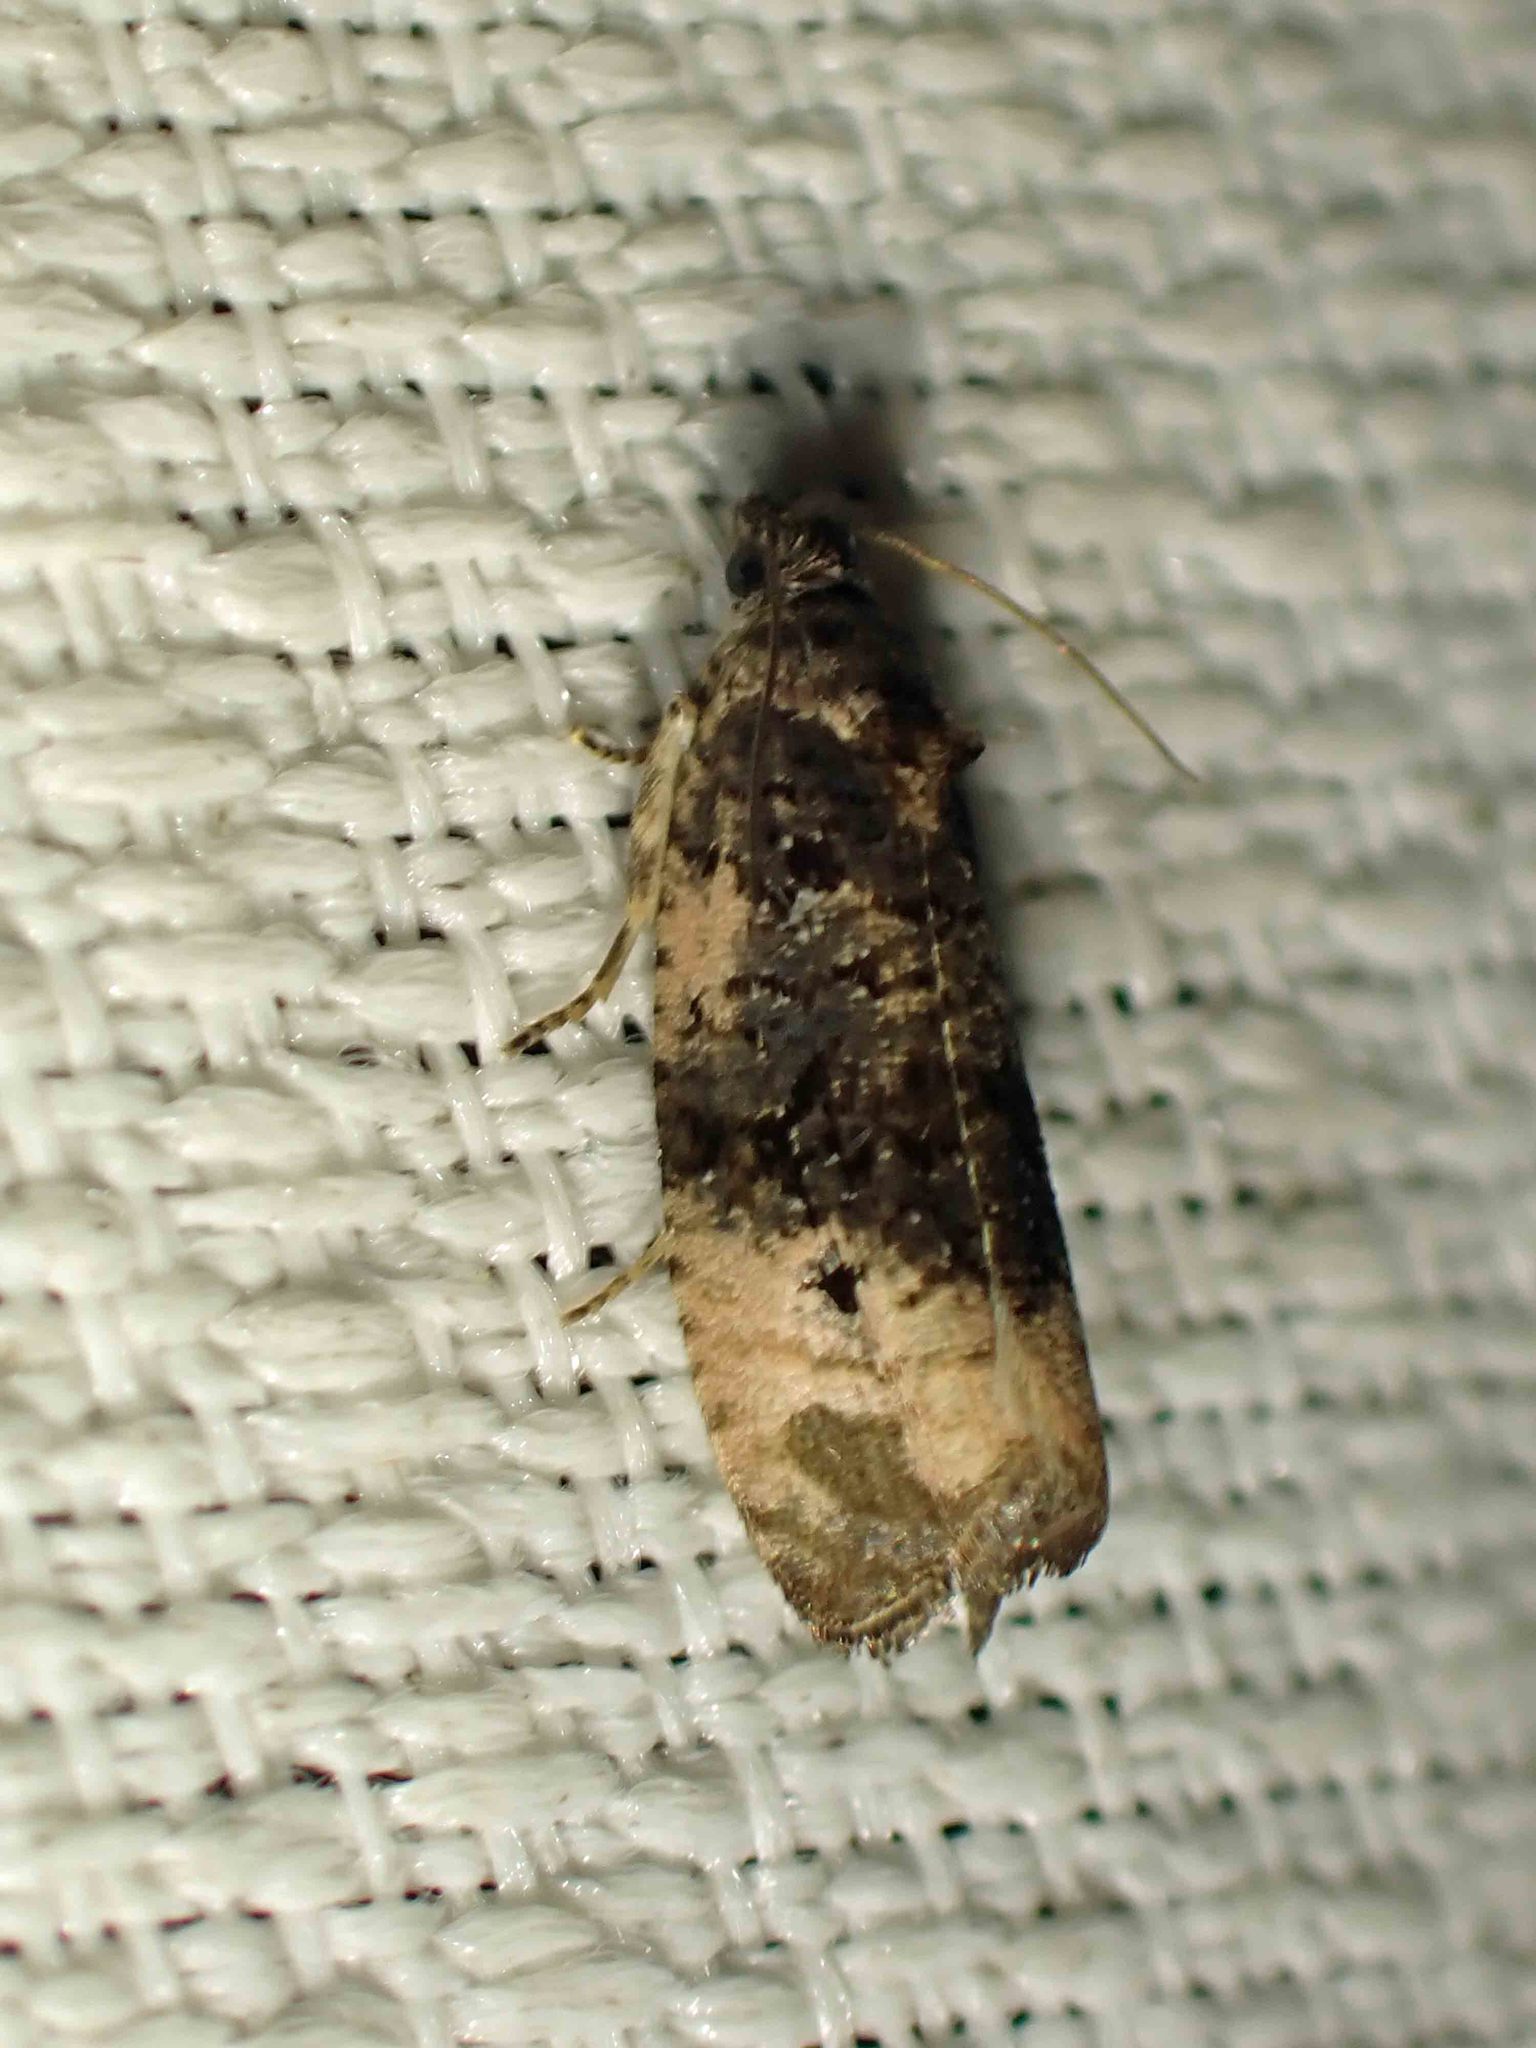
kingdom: Animalia
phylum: Arthropoda
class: Insecta
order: Lepidoptera
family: Tortricidae
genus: Hedya
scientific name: Hedya separatana
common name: Pink-washed leafroller moth
